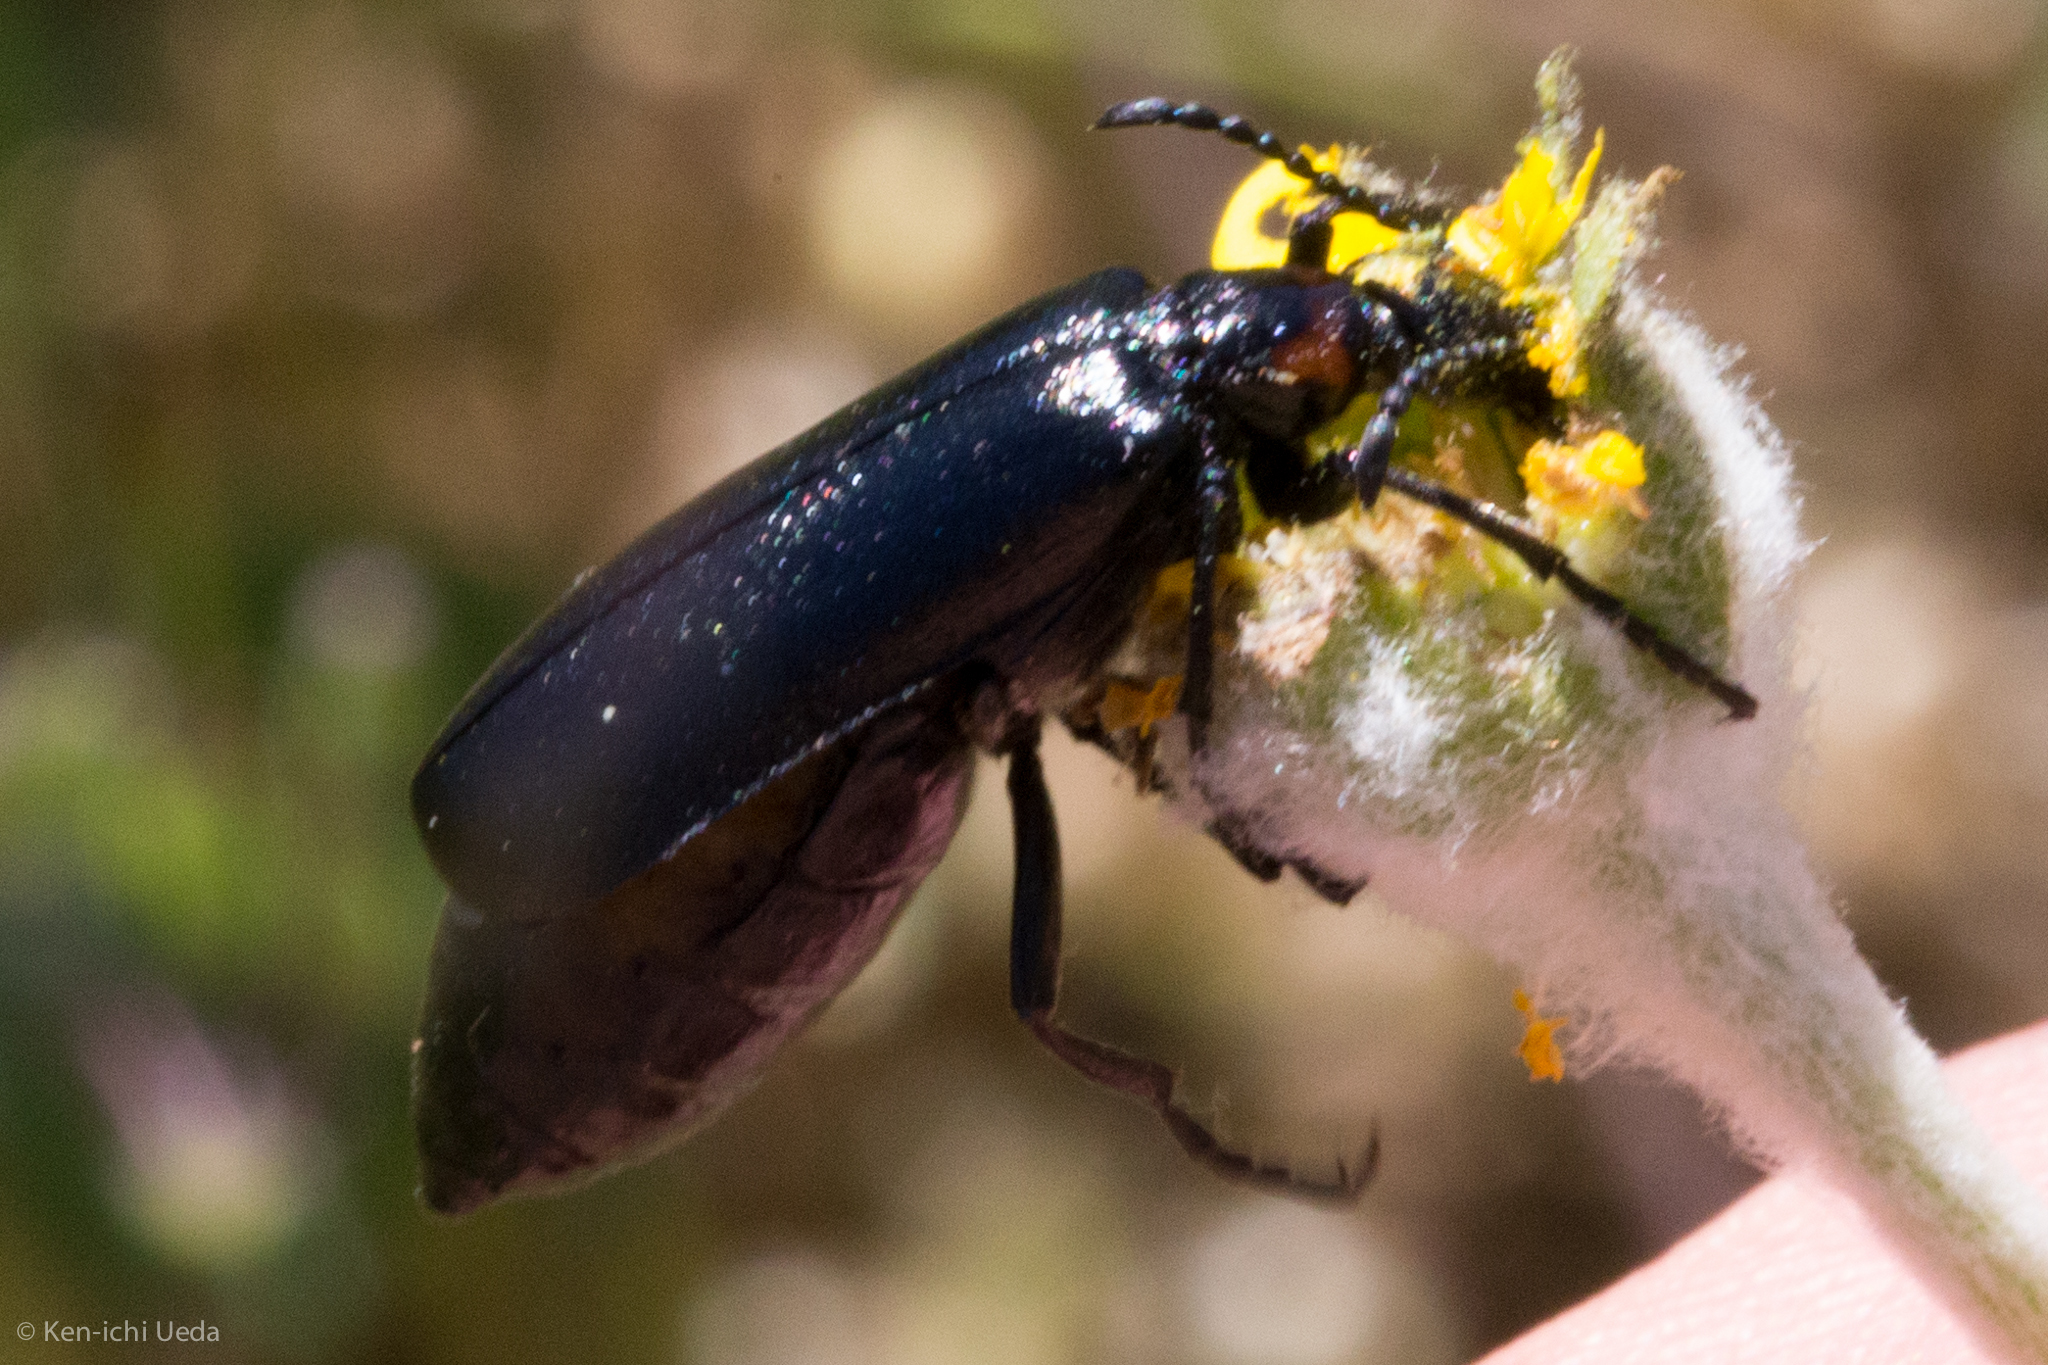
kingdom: Animalia
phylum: Arthropoda
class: Insecta
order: Coleoptera
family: Meloidae
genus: Lytta
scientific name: Lytta childi
